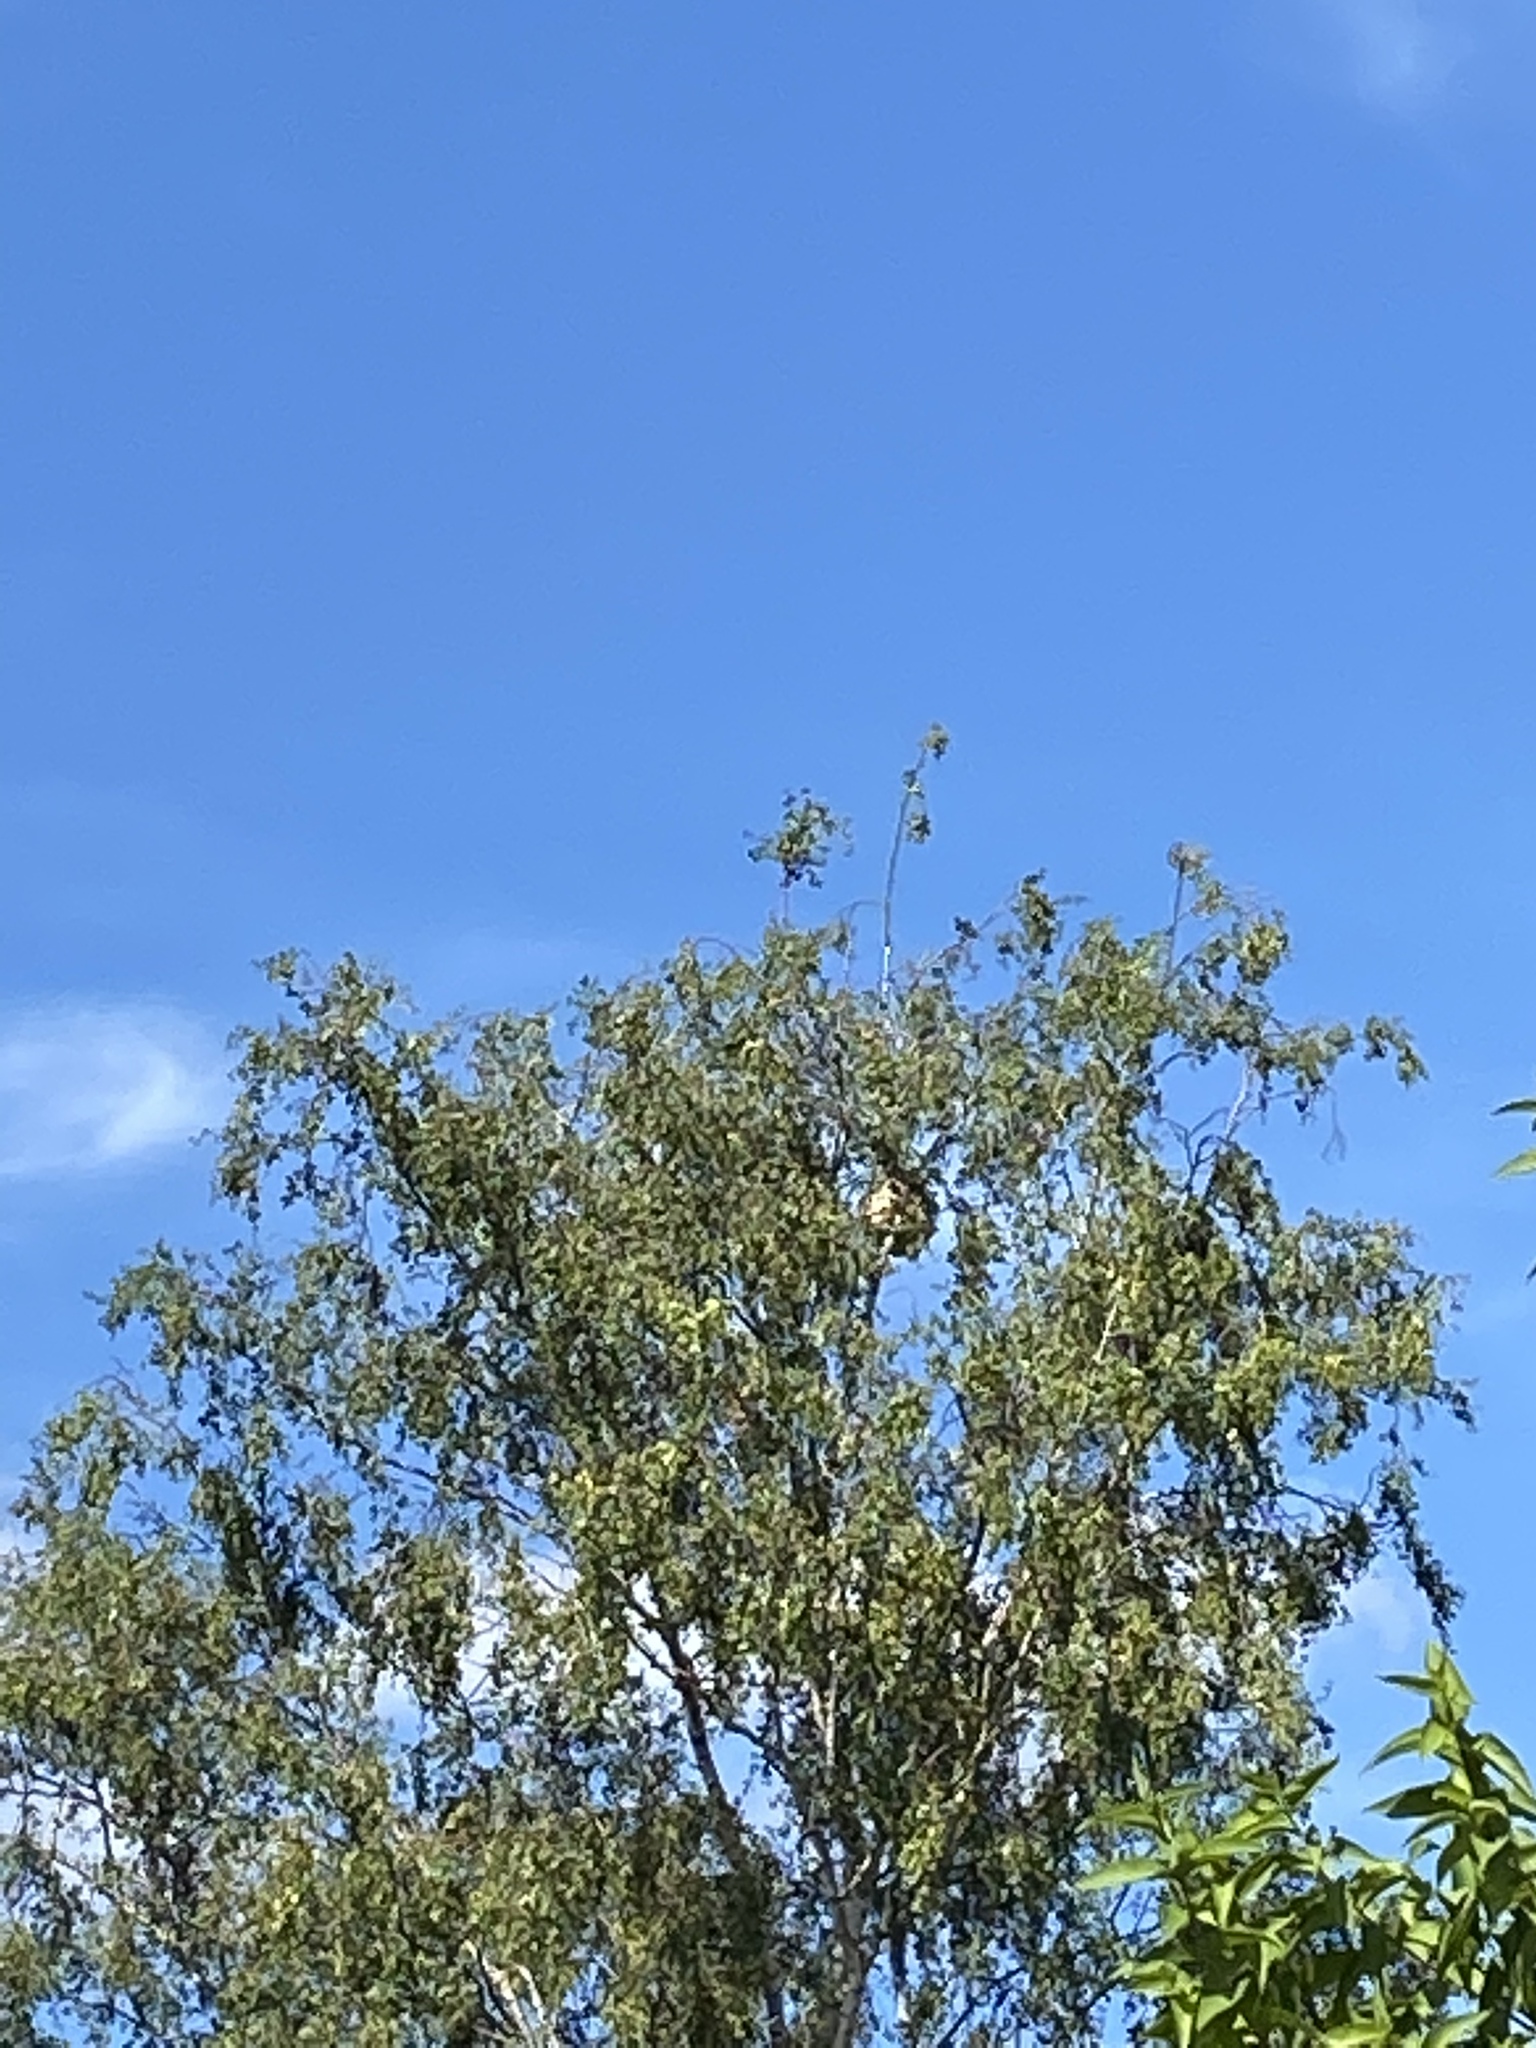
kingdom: Animalia
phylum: Arthropoda
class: Insecta
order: Hymenoptera
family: Vespidae
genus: Vespa
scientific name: Vespa velutina
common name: Asian hornet
